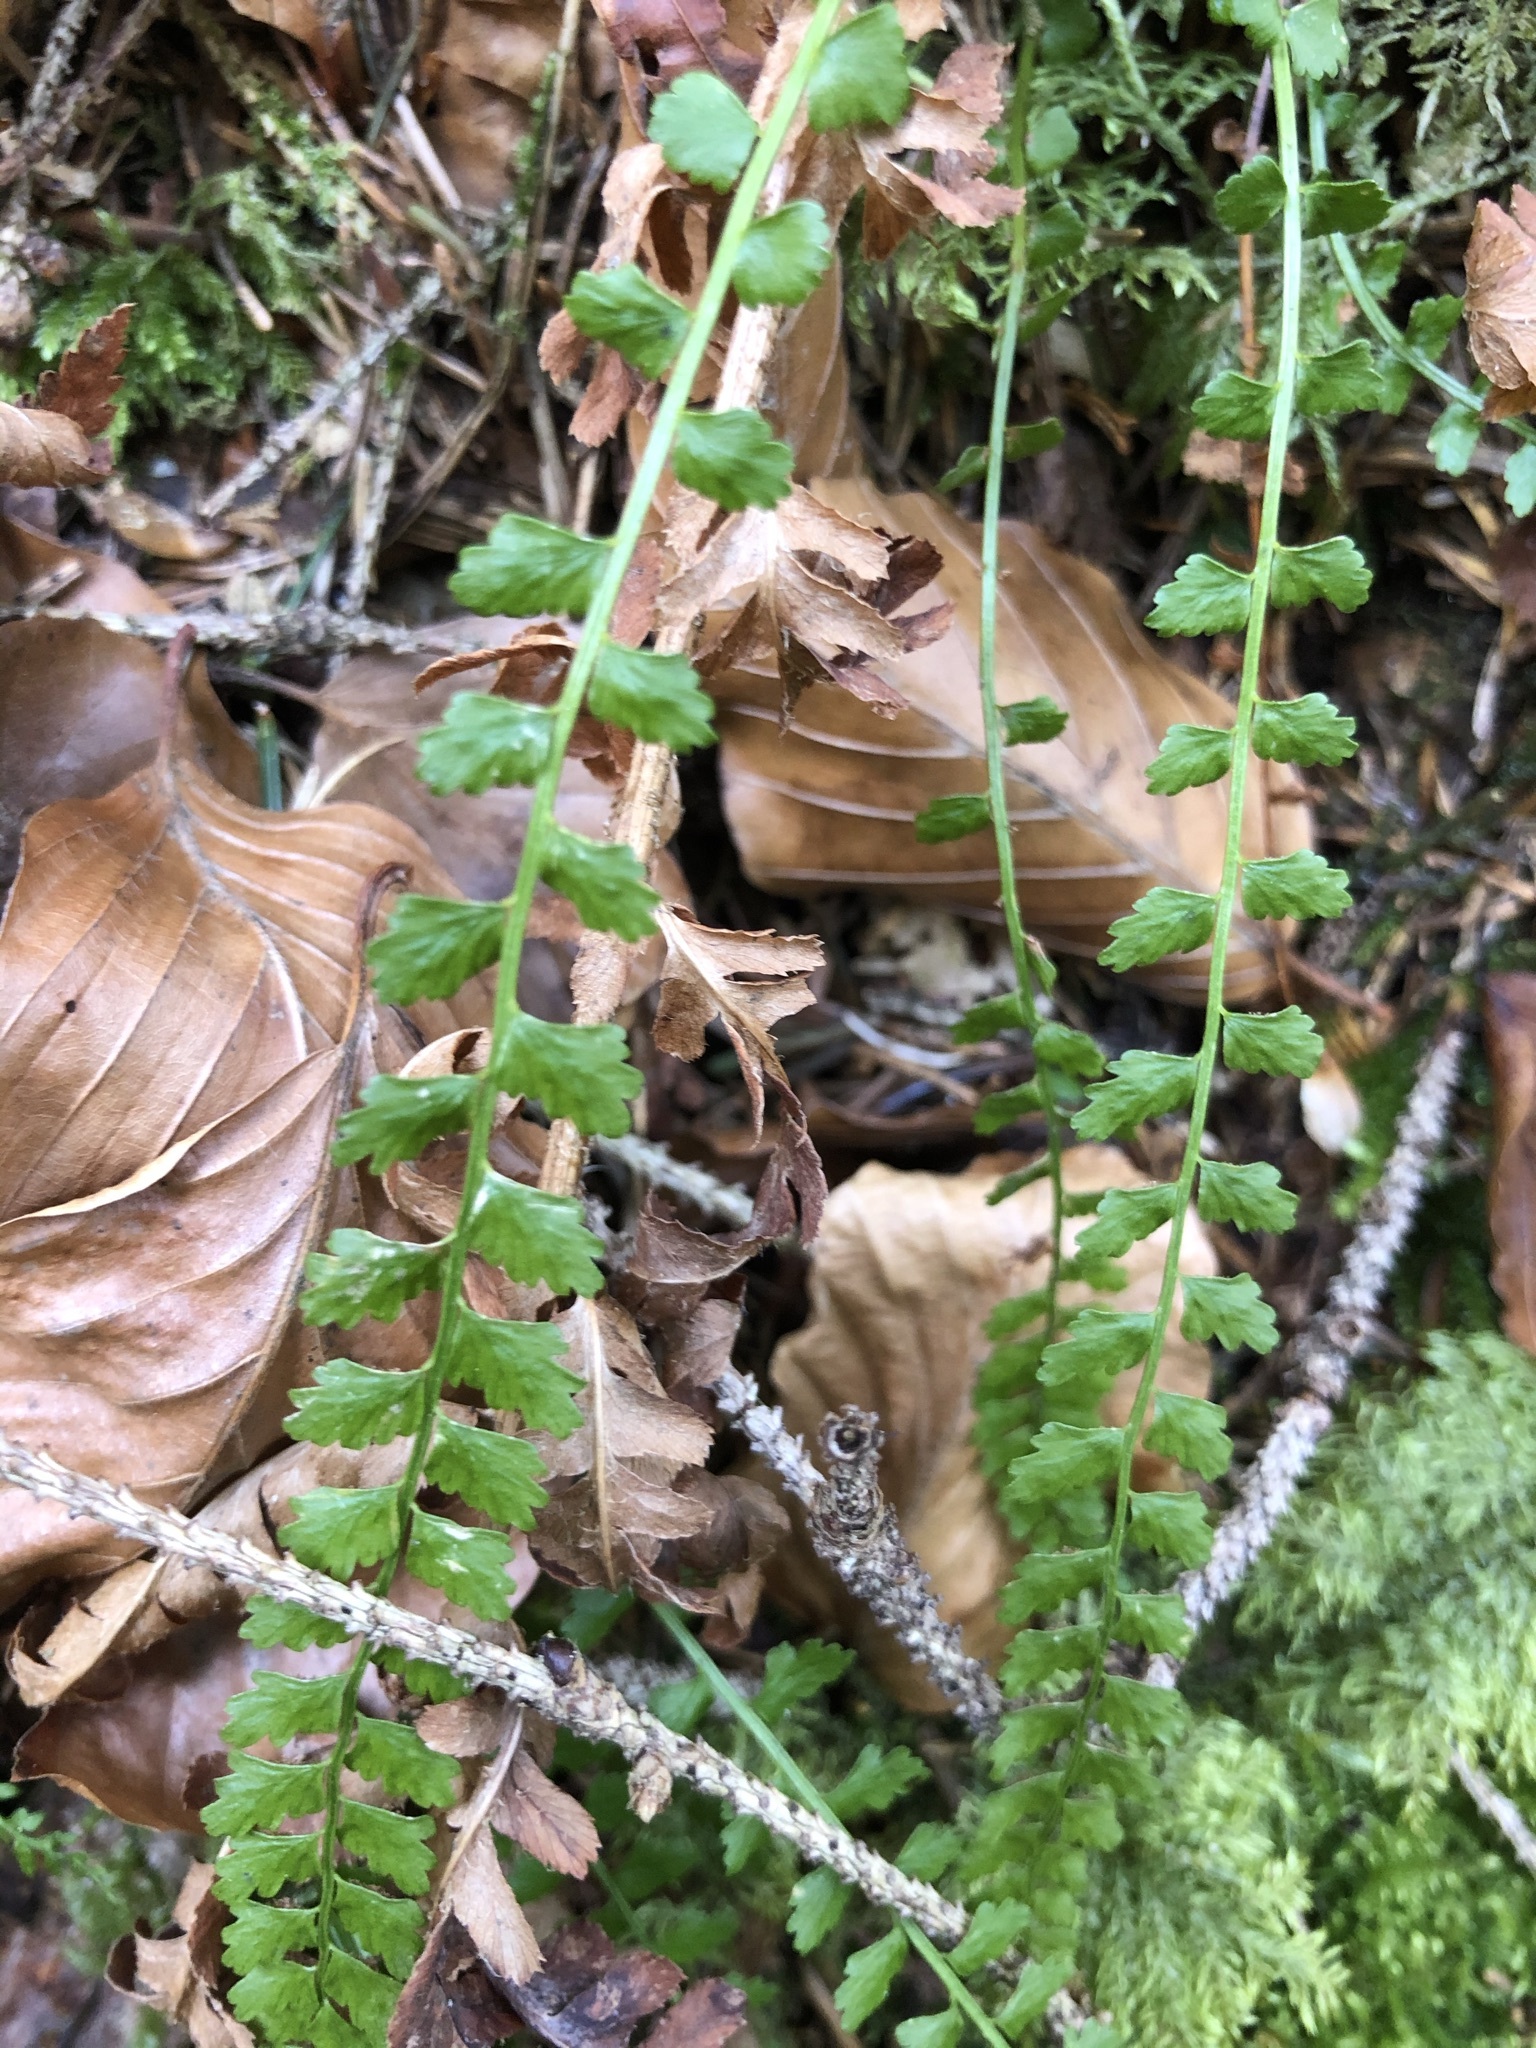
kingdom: Plantae
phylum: Tracheophyta
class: Polypodiopsida
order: Polypodiales
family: Aspleniaceae
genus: Asplenium
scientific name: Asplenium viride
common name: Green spleenwort
